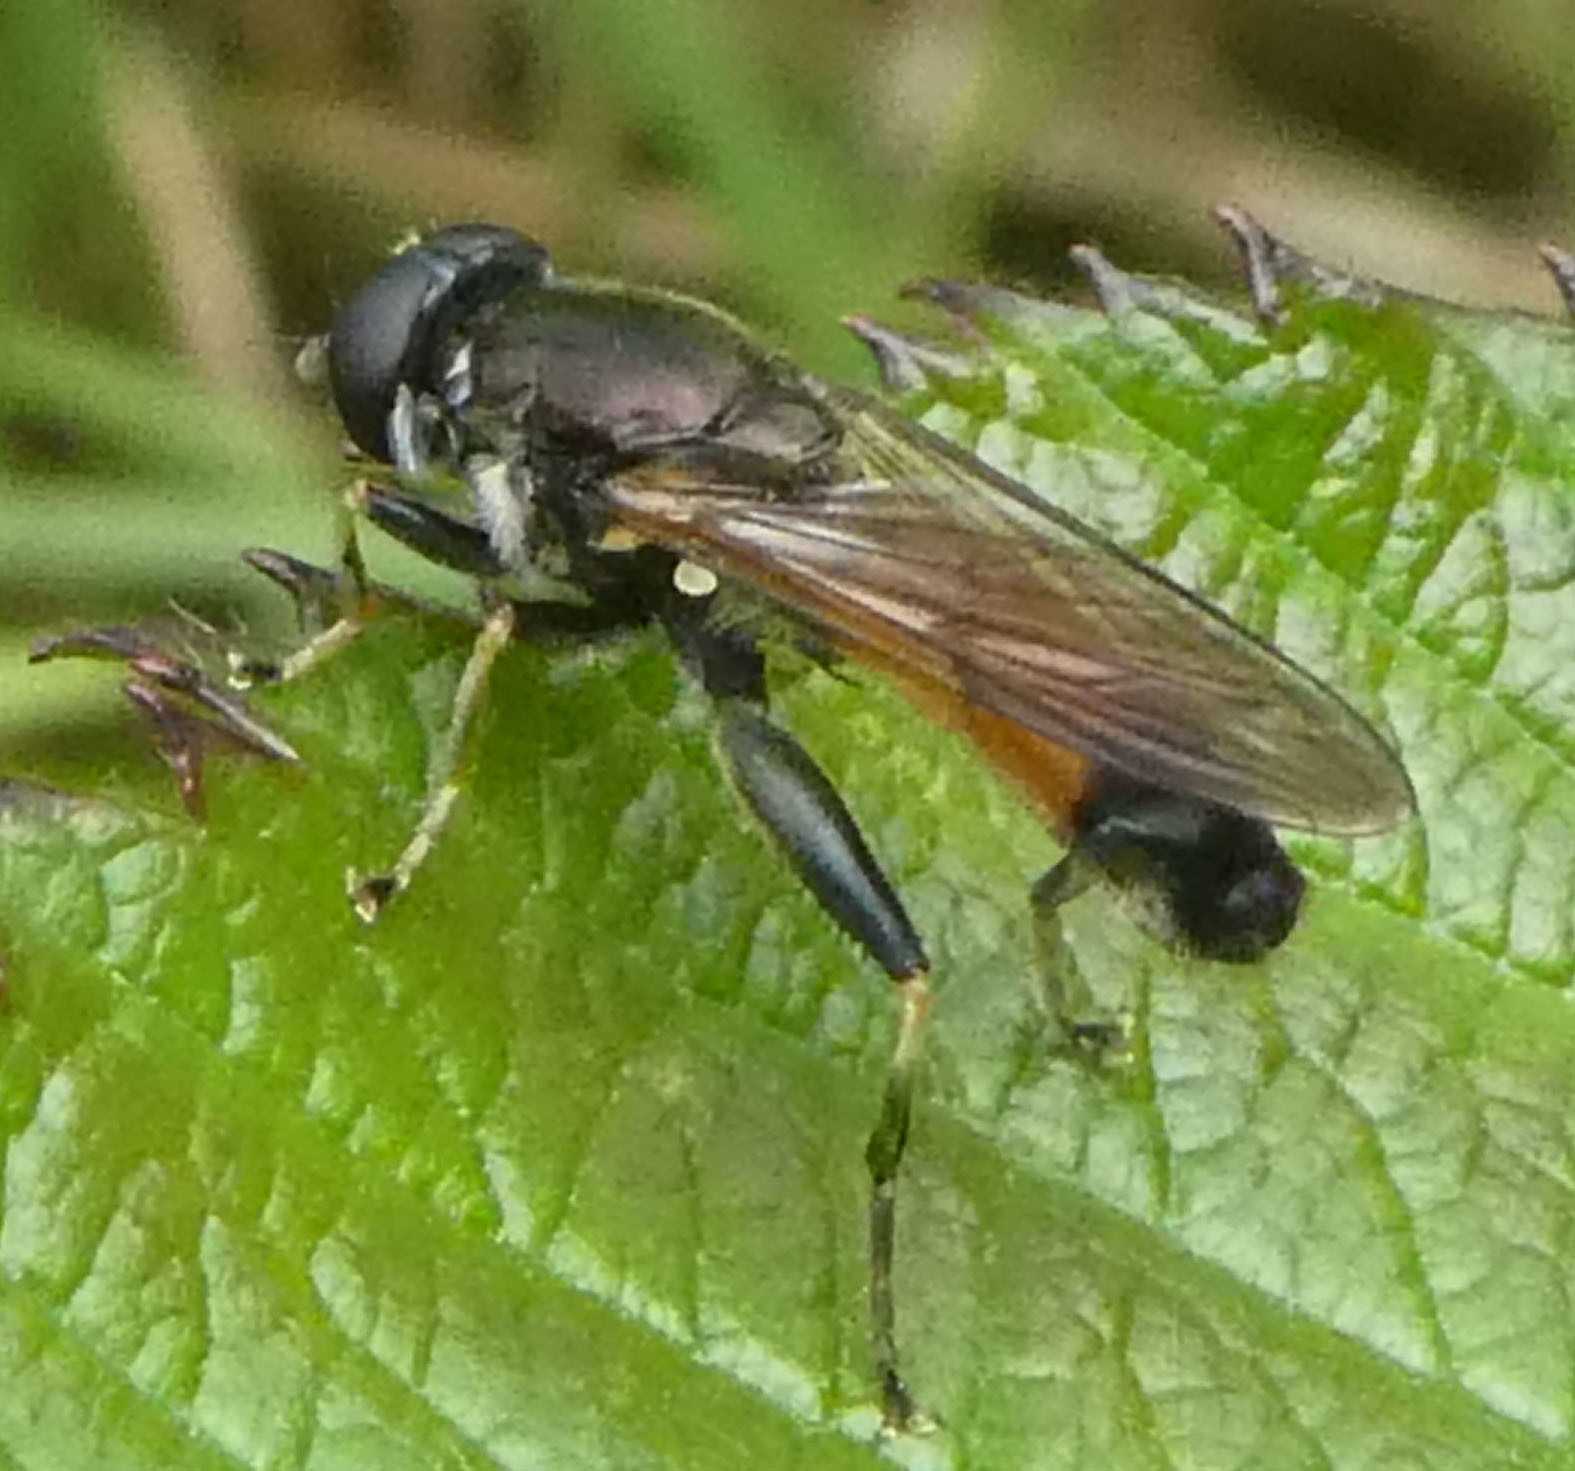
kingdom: Animalia
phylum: Arthropoda
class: Insecta
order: Diptera
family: Syrphidae
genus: Xylota
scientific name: Xylota segnis
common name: Brown-toed forest fly
